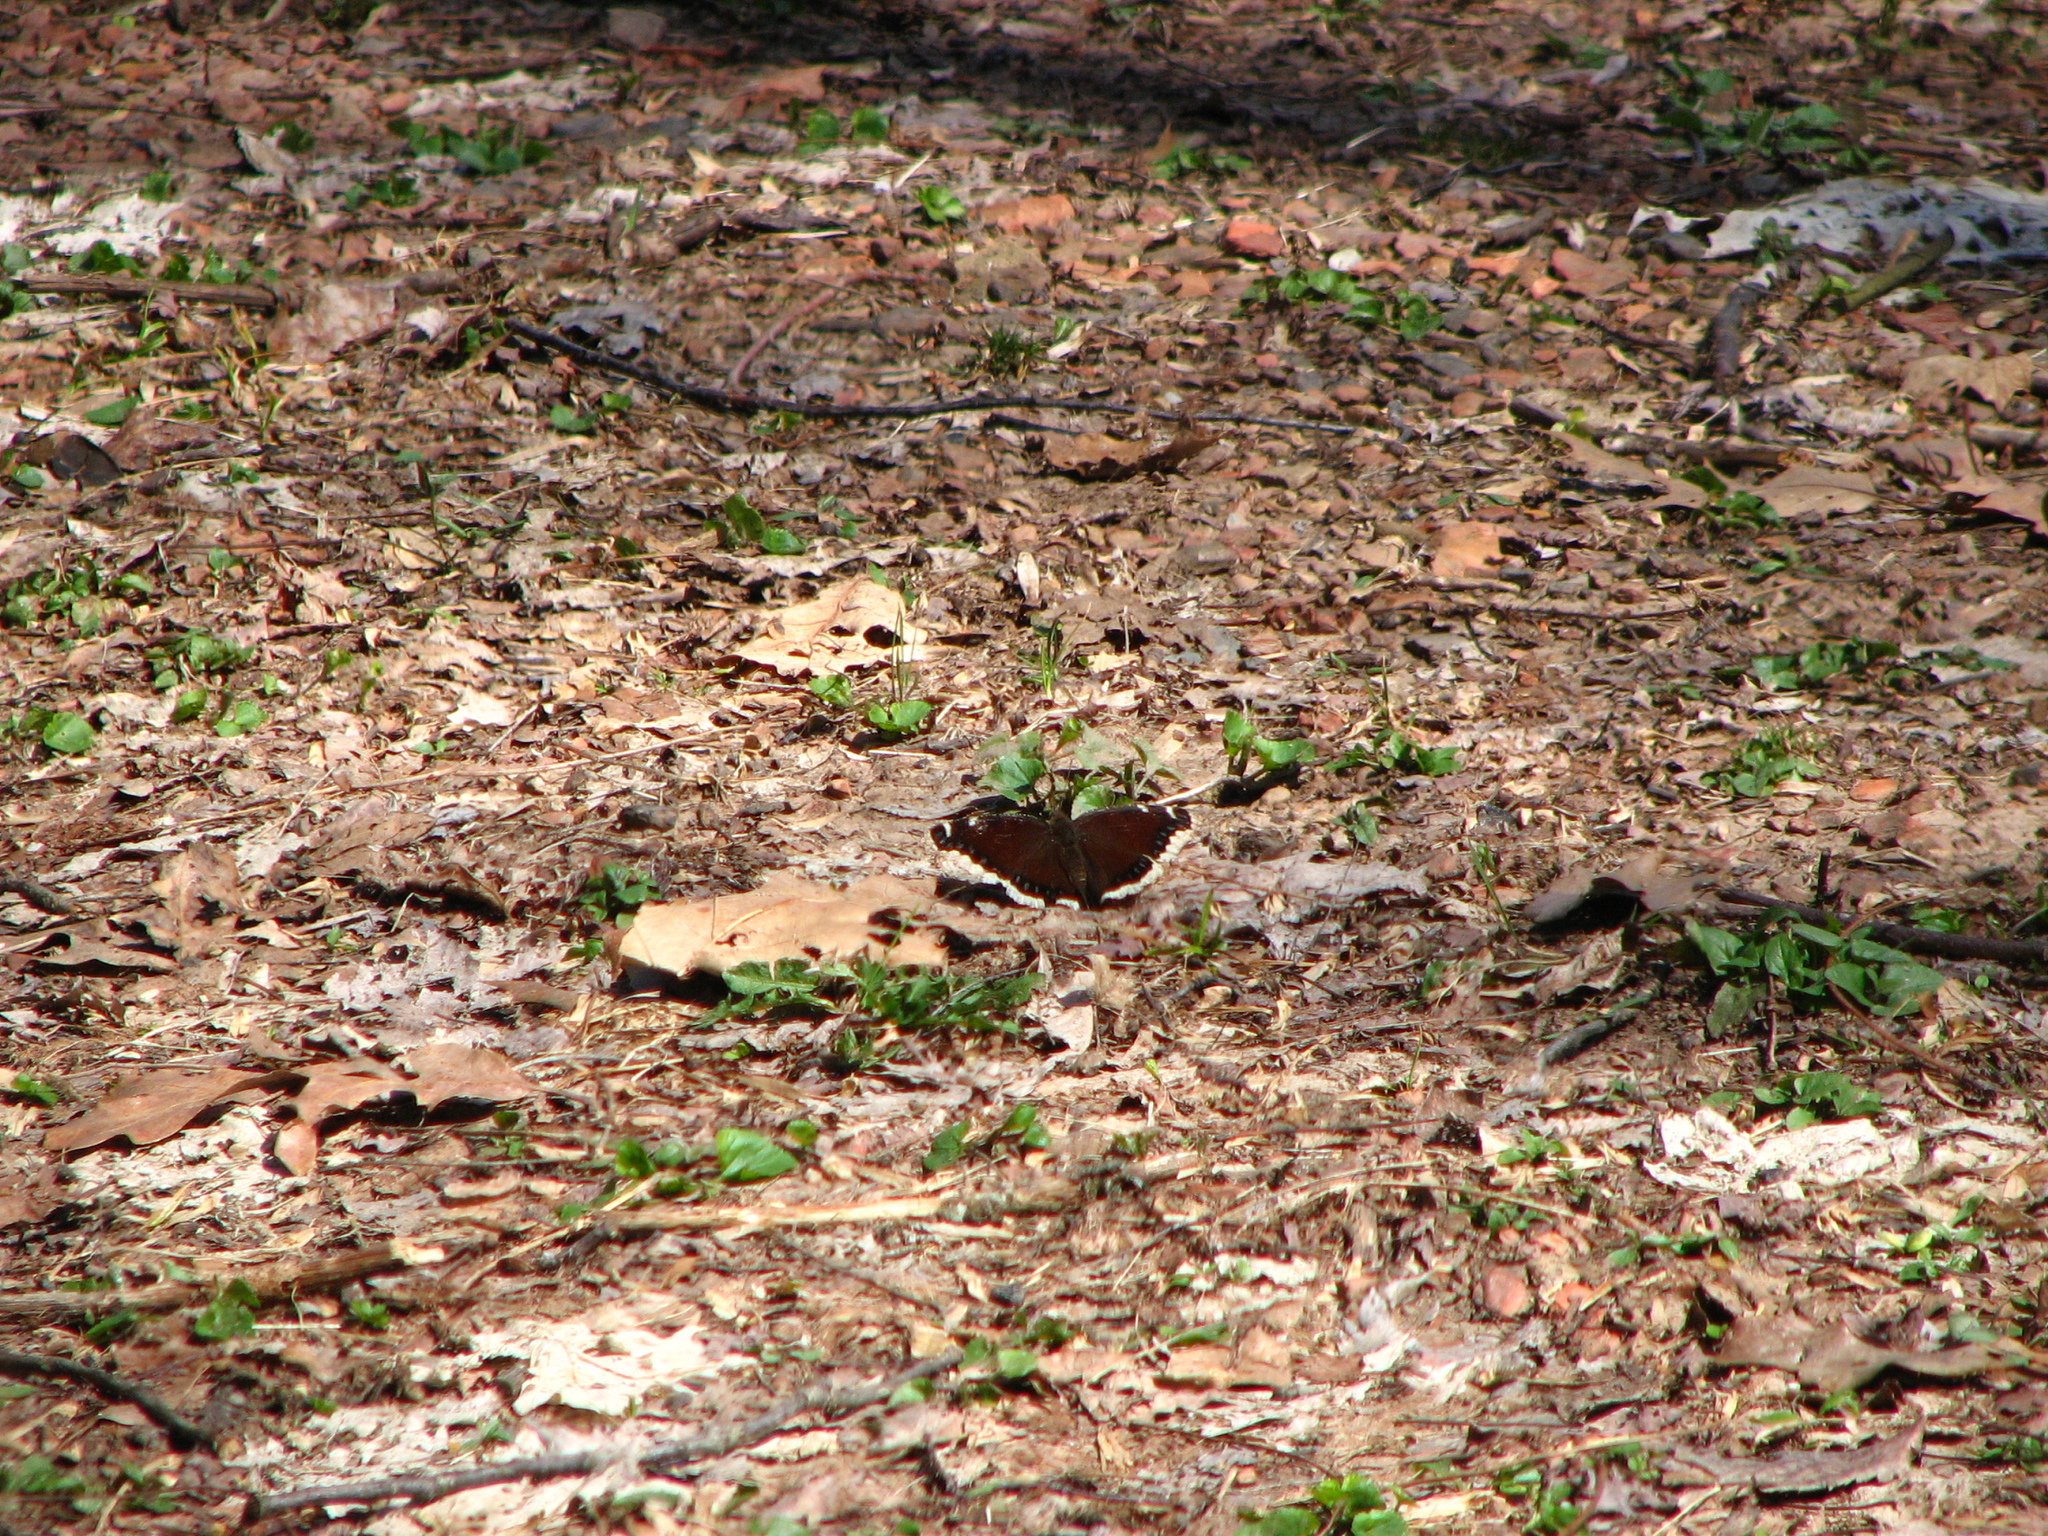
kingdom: Animalia
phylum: Arthropoda
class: Insecta
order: Lepidoptera
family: Nymphalidae
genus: Nymphalis
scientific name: Nymphalis antiopa
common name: Camberwell beauty
